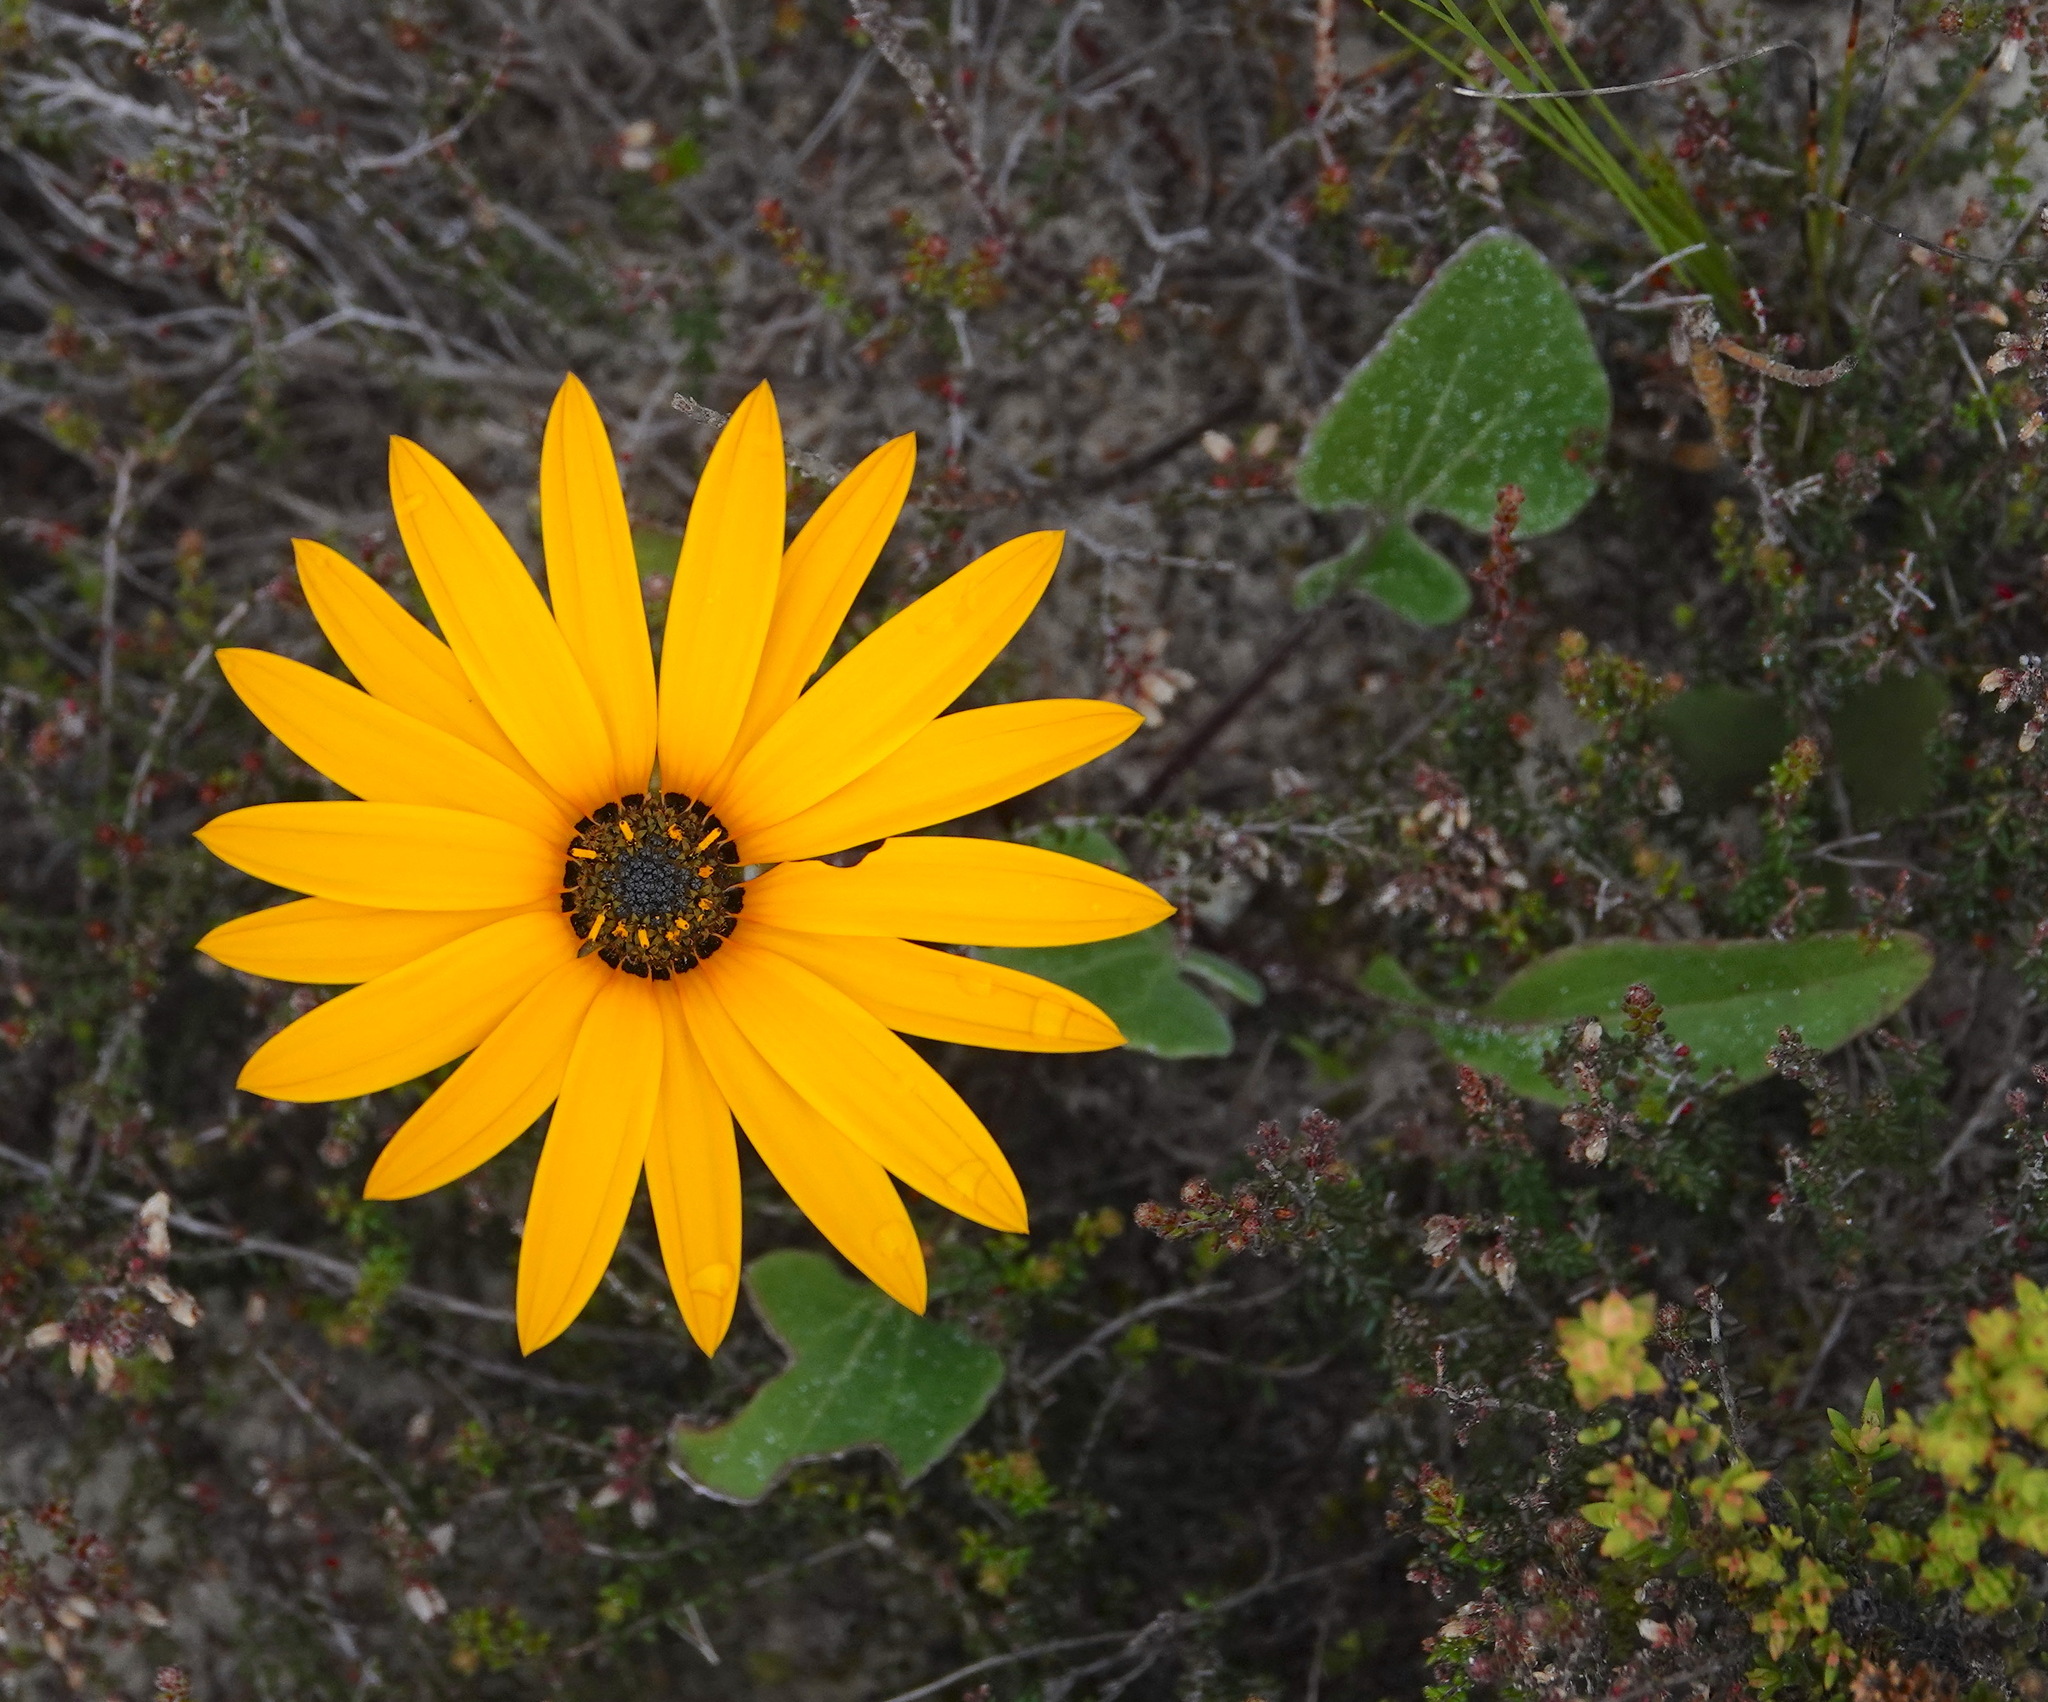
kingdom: Plantae
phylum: Tracheophyta
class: Magnoliopsida
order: Asterales
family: Asteraceae
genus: Arctotis
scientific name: Arctotis acaulis
